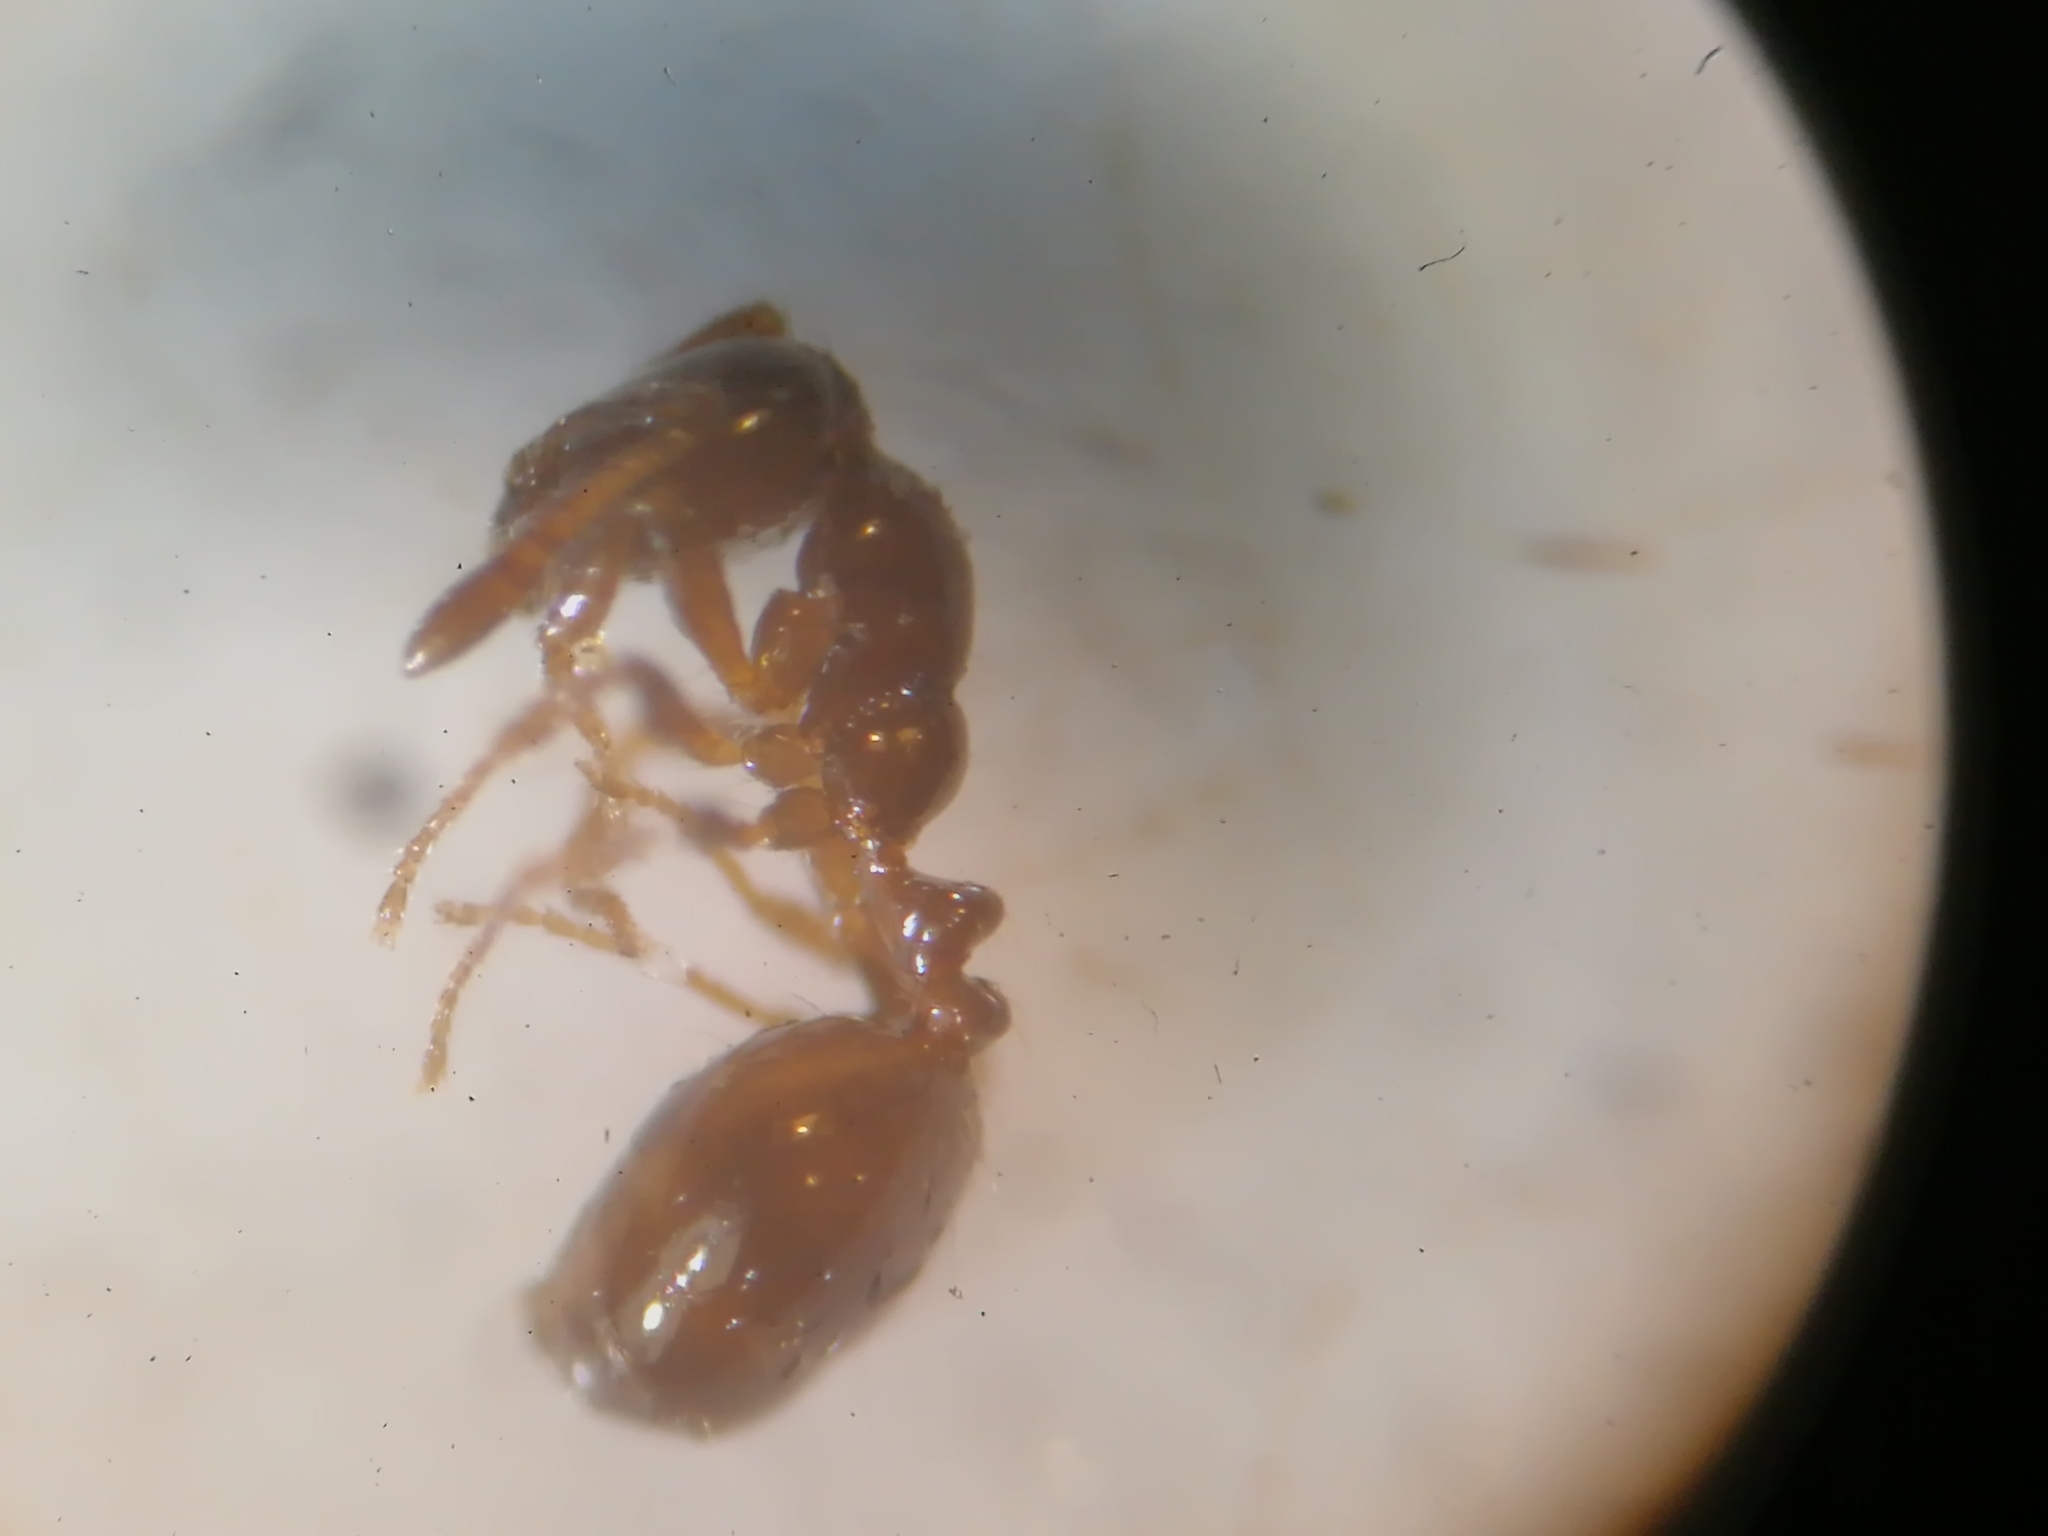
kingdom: Animalia
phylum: Arthropoda
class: Insecta
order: Hymenoptera
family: Formicidae
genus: Monomorium
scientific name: Monomorium monomorium
